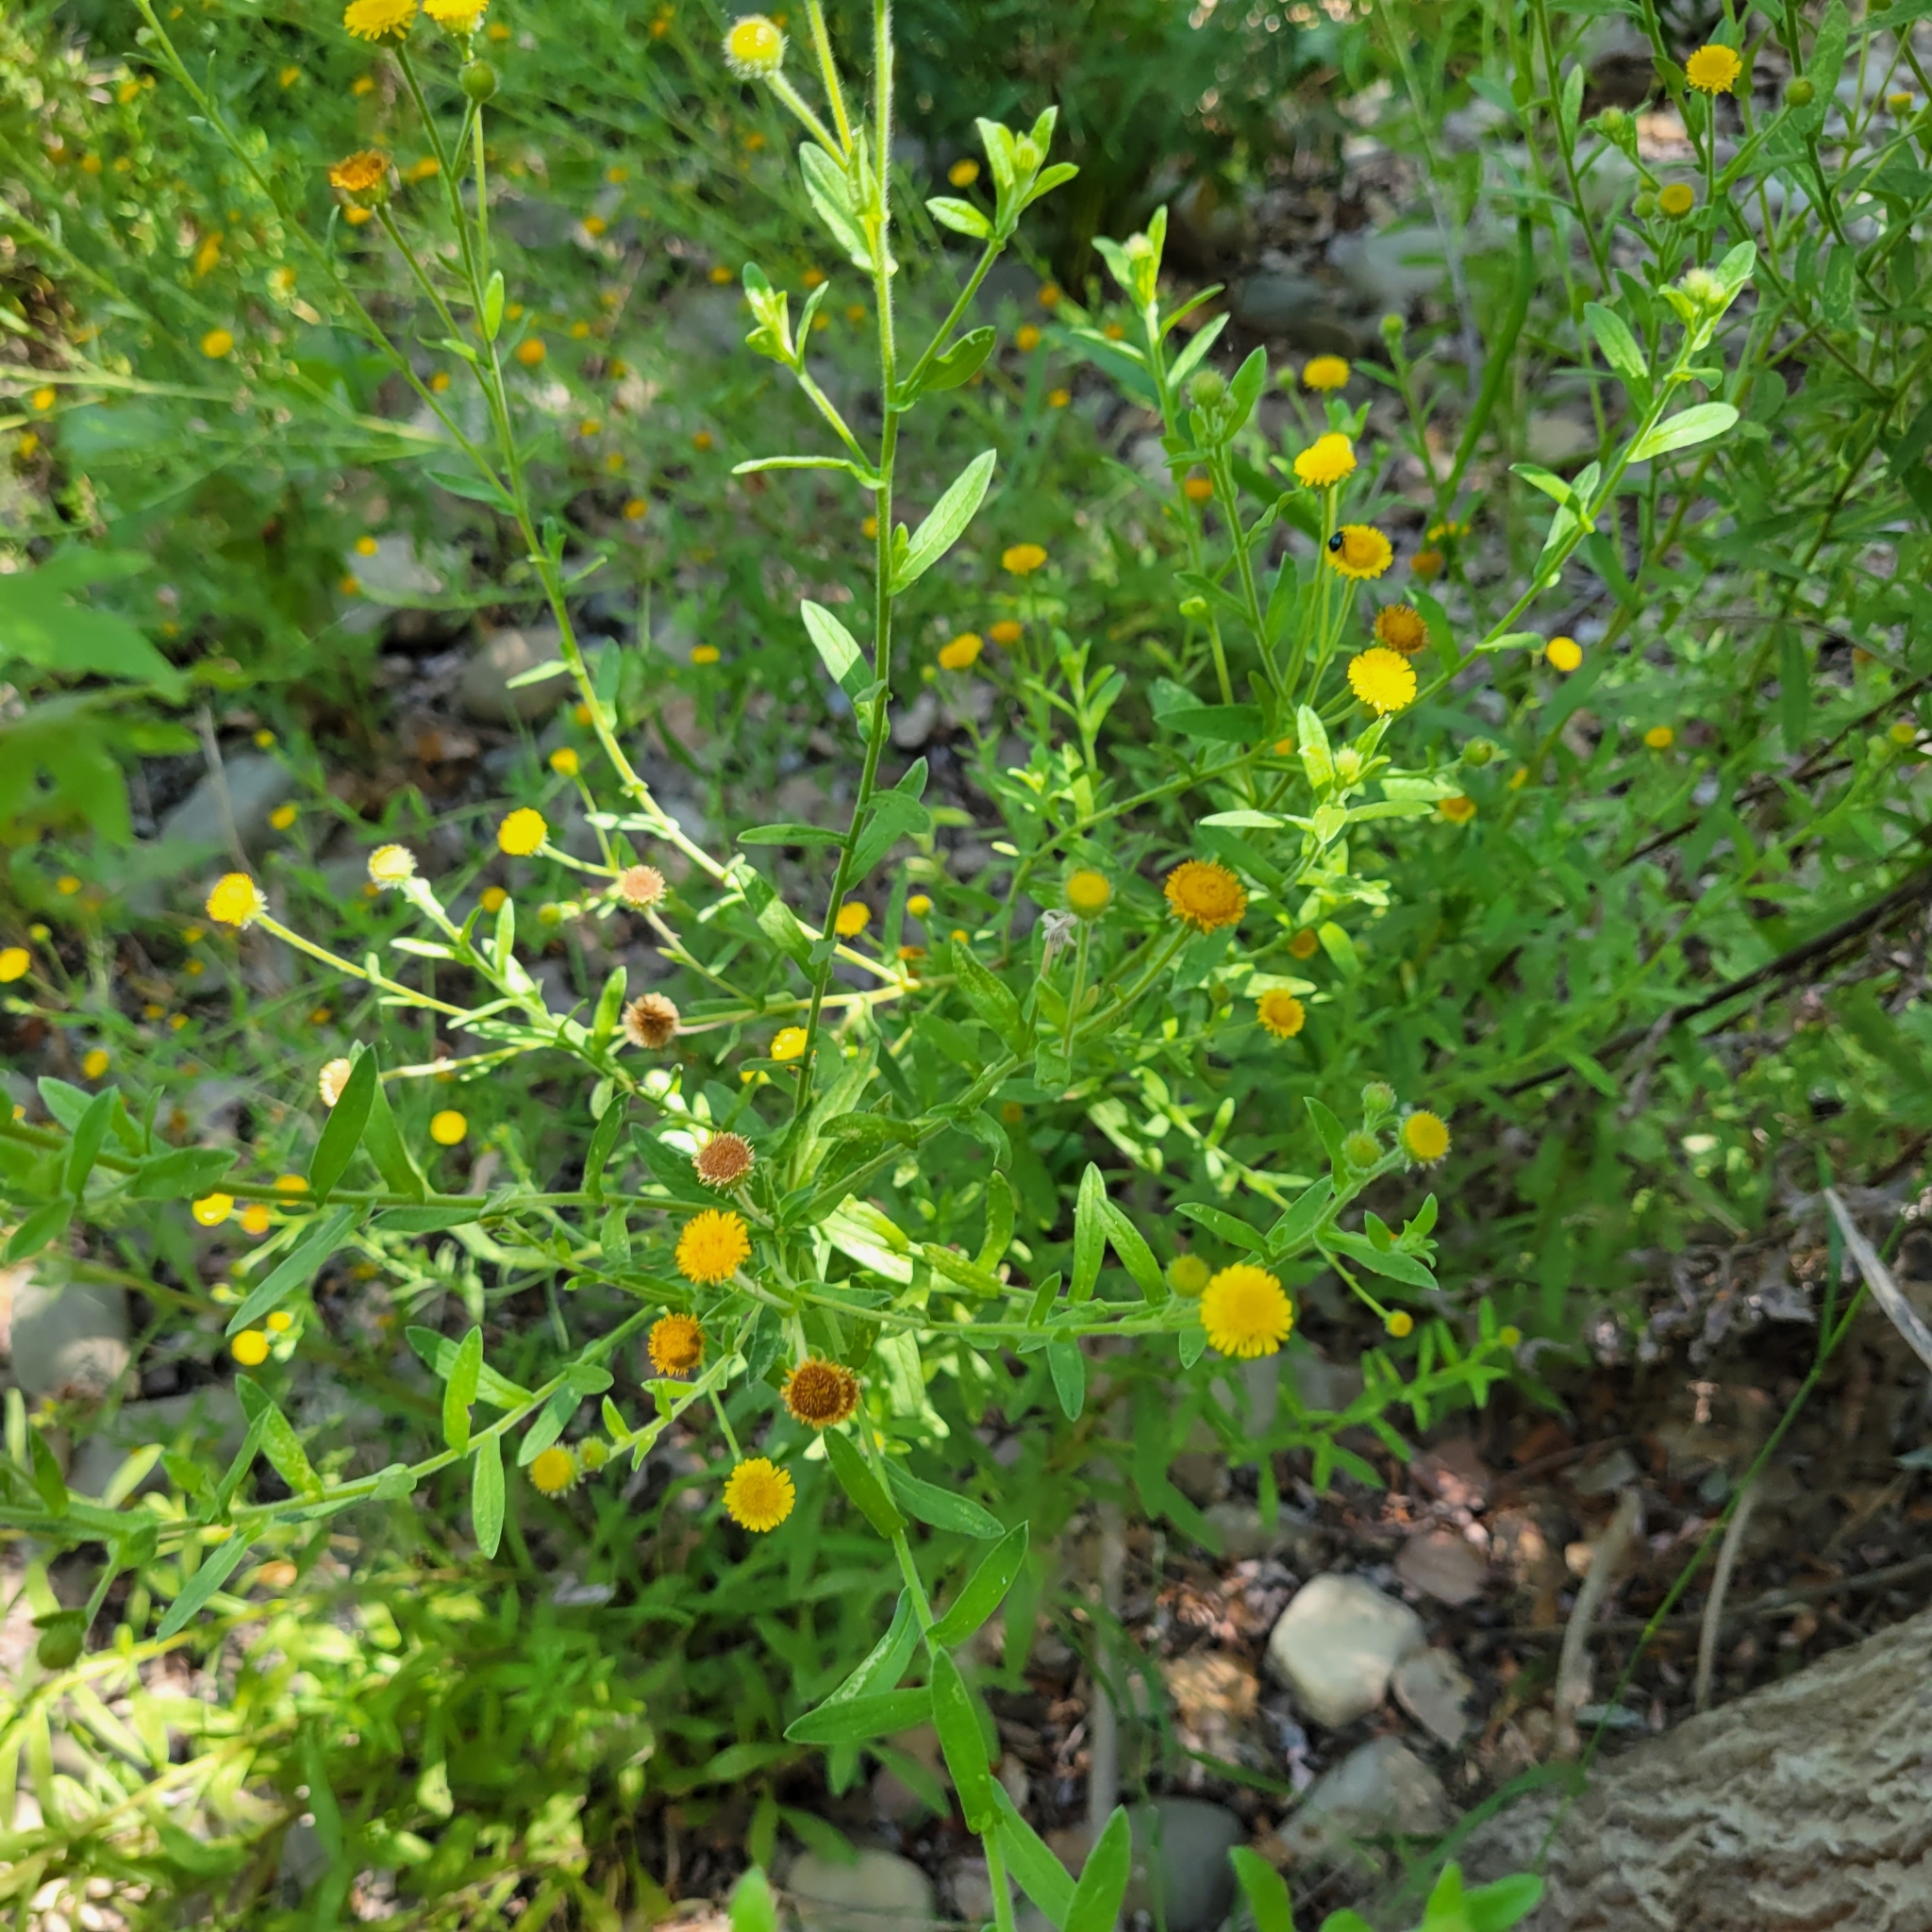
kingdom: Plantae
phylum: Tracheophyta
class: Magnoliopsida
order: Asterales
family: Asteraceae
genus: Pulicaria
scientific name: Pulicaria paludosa
